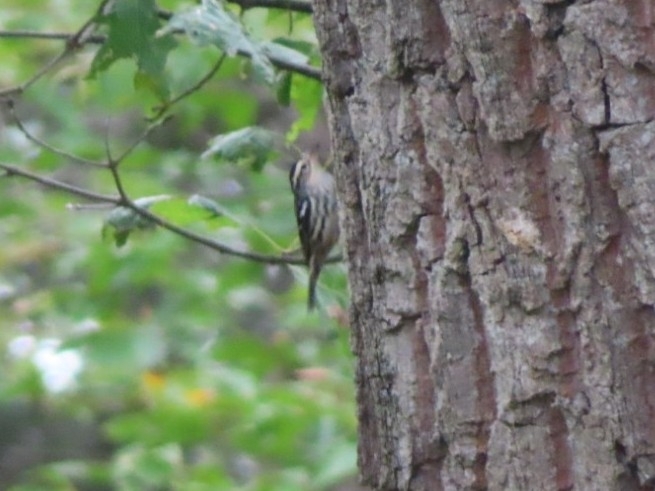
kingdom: Animalia
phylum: Chordata
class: Aves
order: Passeriformes
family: Parulidae
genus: Mniotilta
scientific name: Mniotilta varia
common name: Black-and-white warbler
